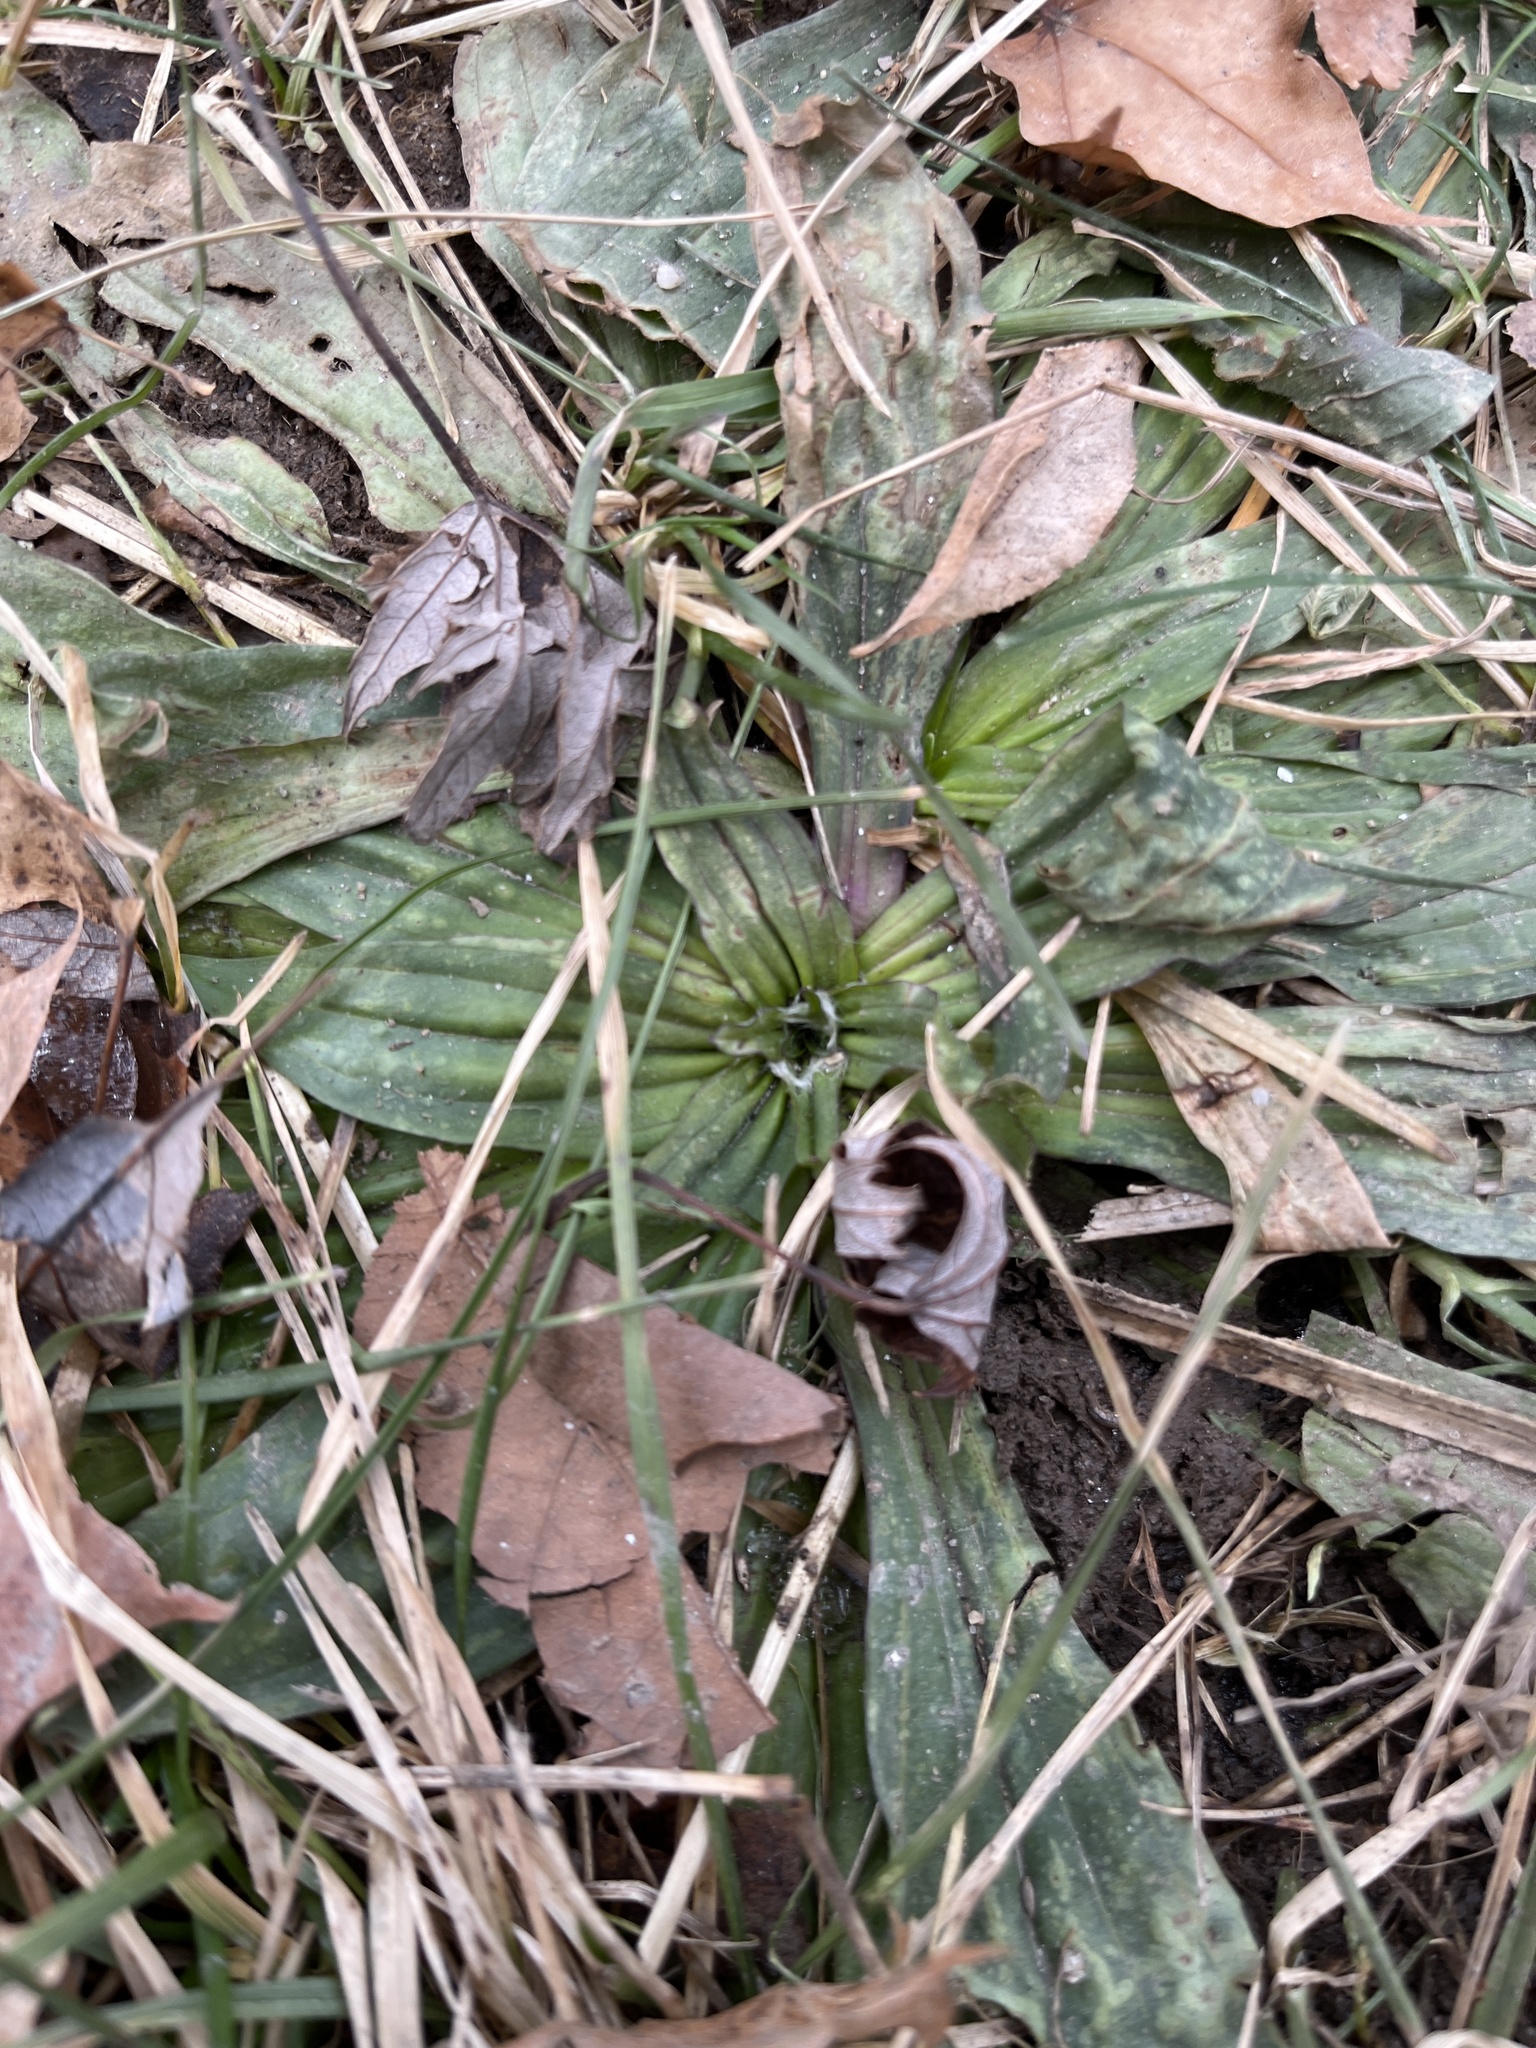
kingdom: Plantae
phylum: Tracheophyta
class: Magnoliopsida
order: Lamiales
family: Plantaginaceae
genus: Plantago
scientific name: Plantago lanceolata
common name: Ribwort plantain
